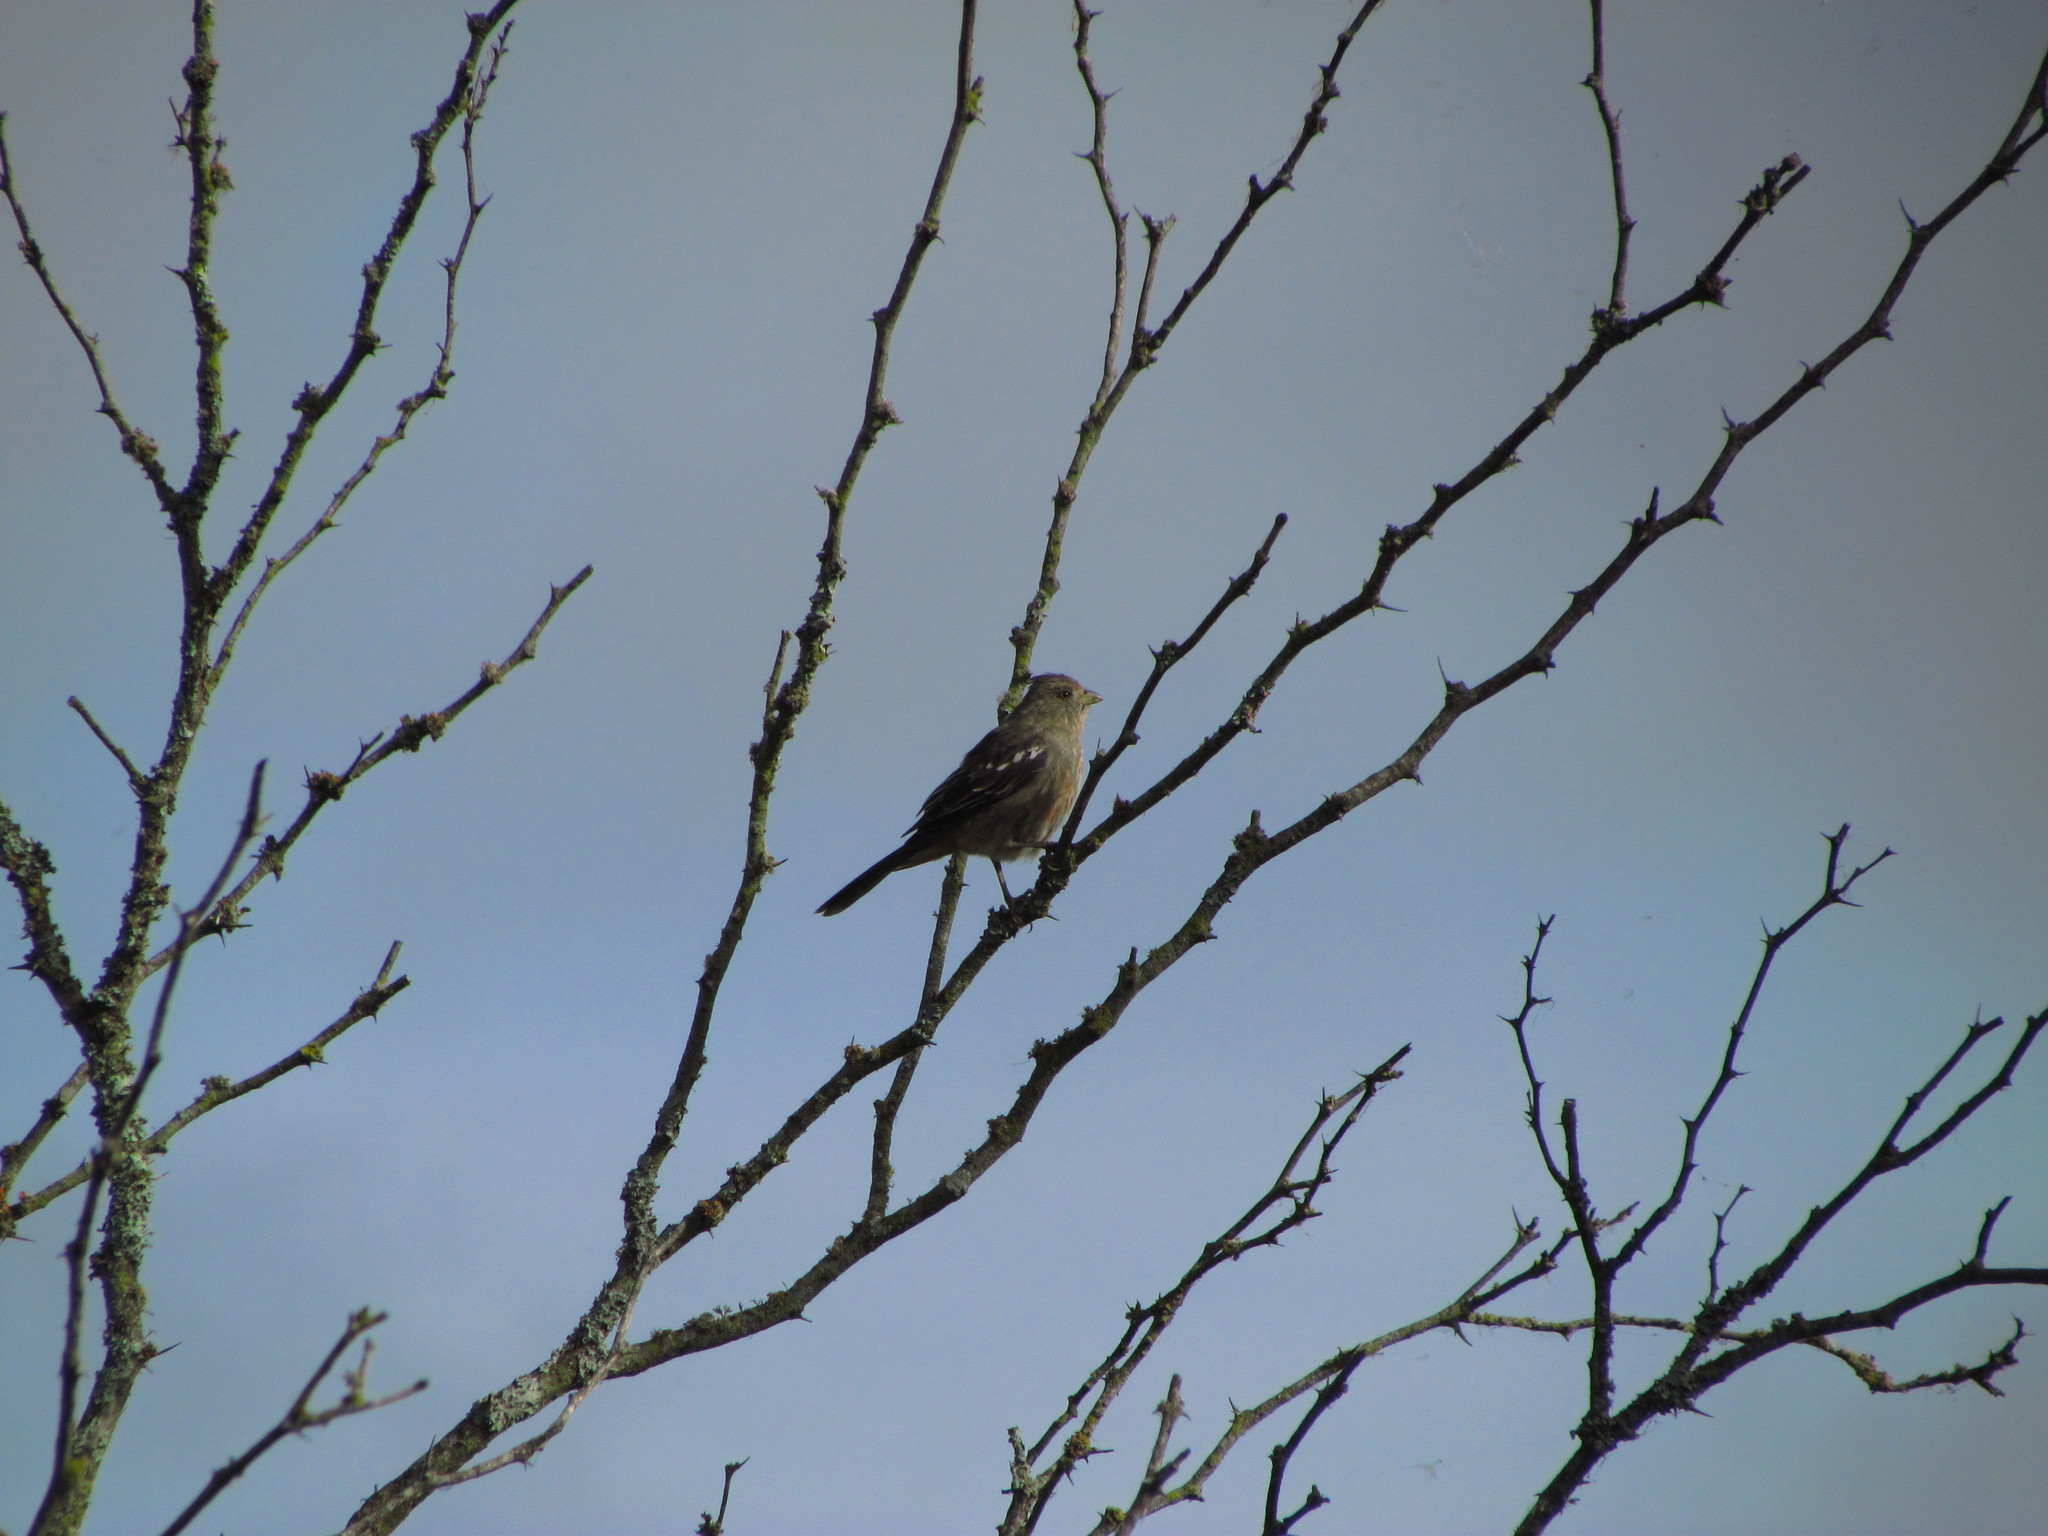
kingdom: Animalia
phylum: Chordata
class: Aves
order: Passeriformes
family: Cotingidae
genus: Phytotoma
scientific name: Phytotoma rutila
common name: White-tipped plantcutter
